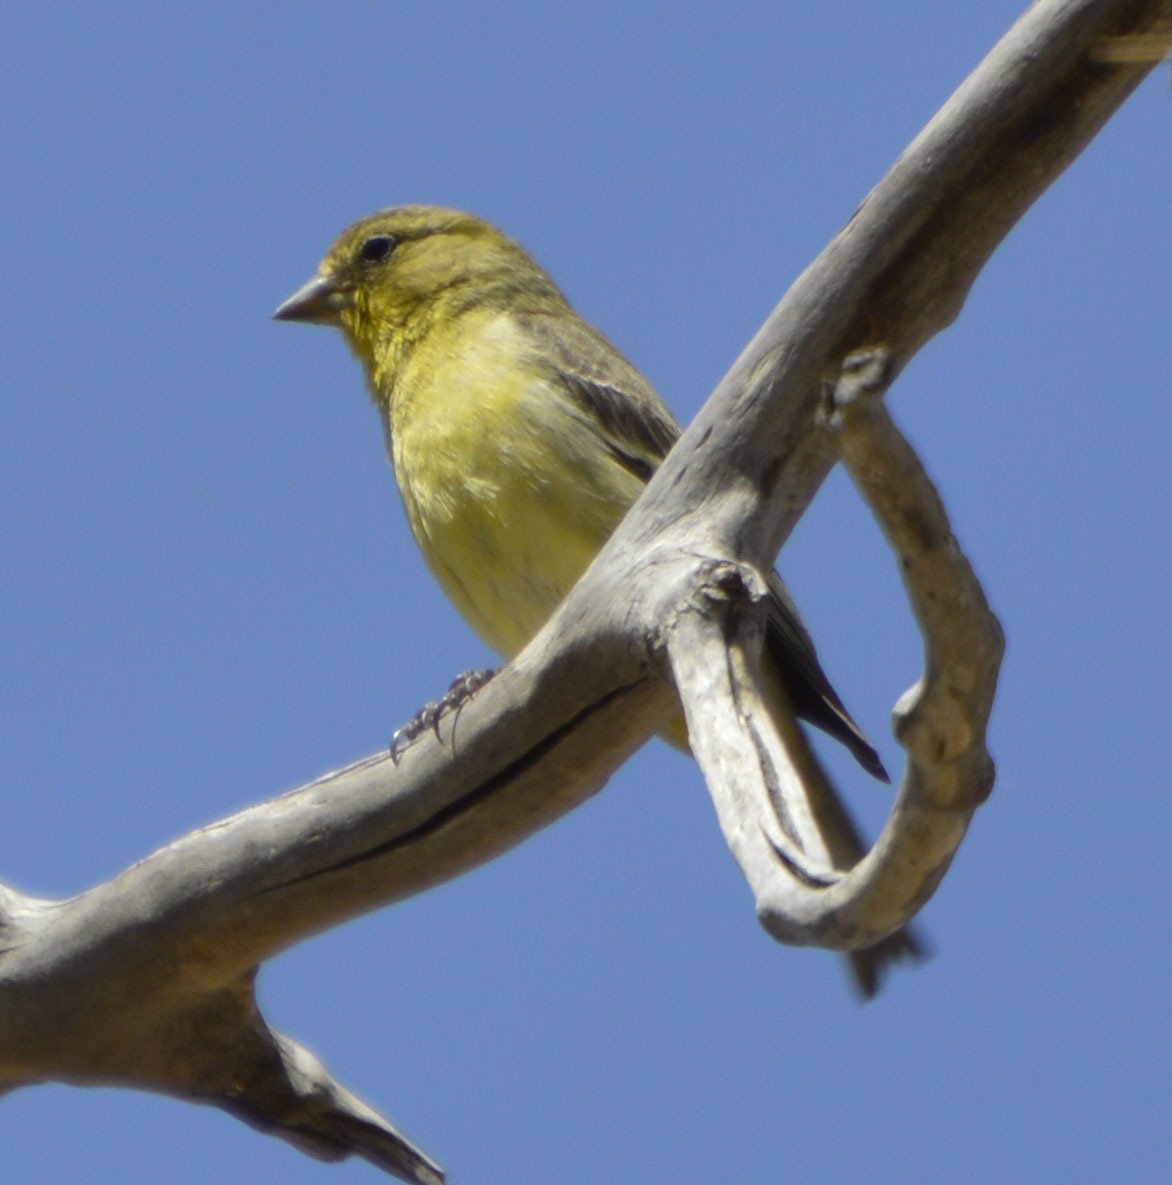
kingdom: Animalia
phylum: Chordata
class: Aves
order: Passeriformes
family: Fringillidae
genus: Spinus
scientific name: Spinus psaltria
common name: Lesser goldfinch
